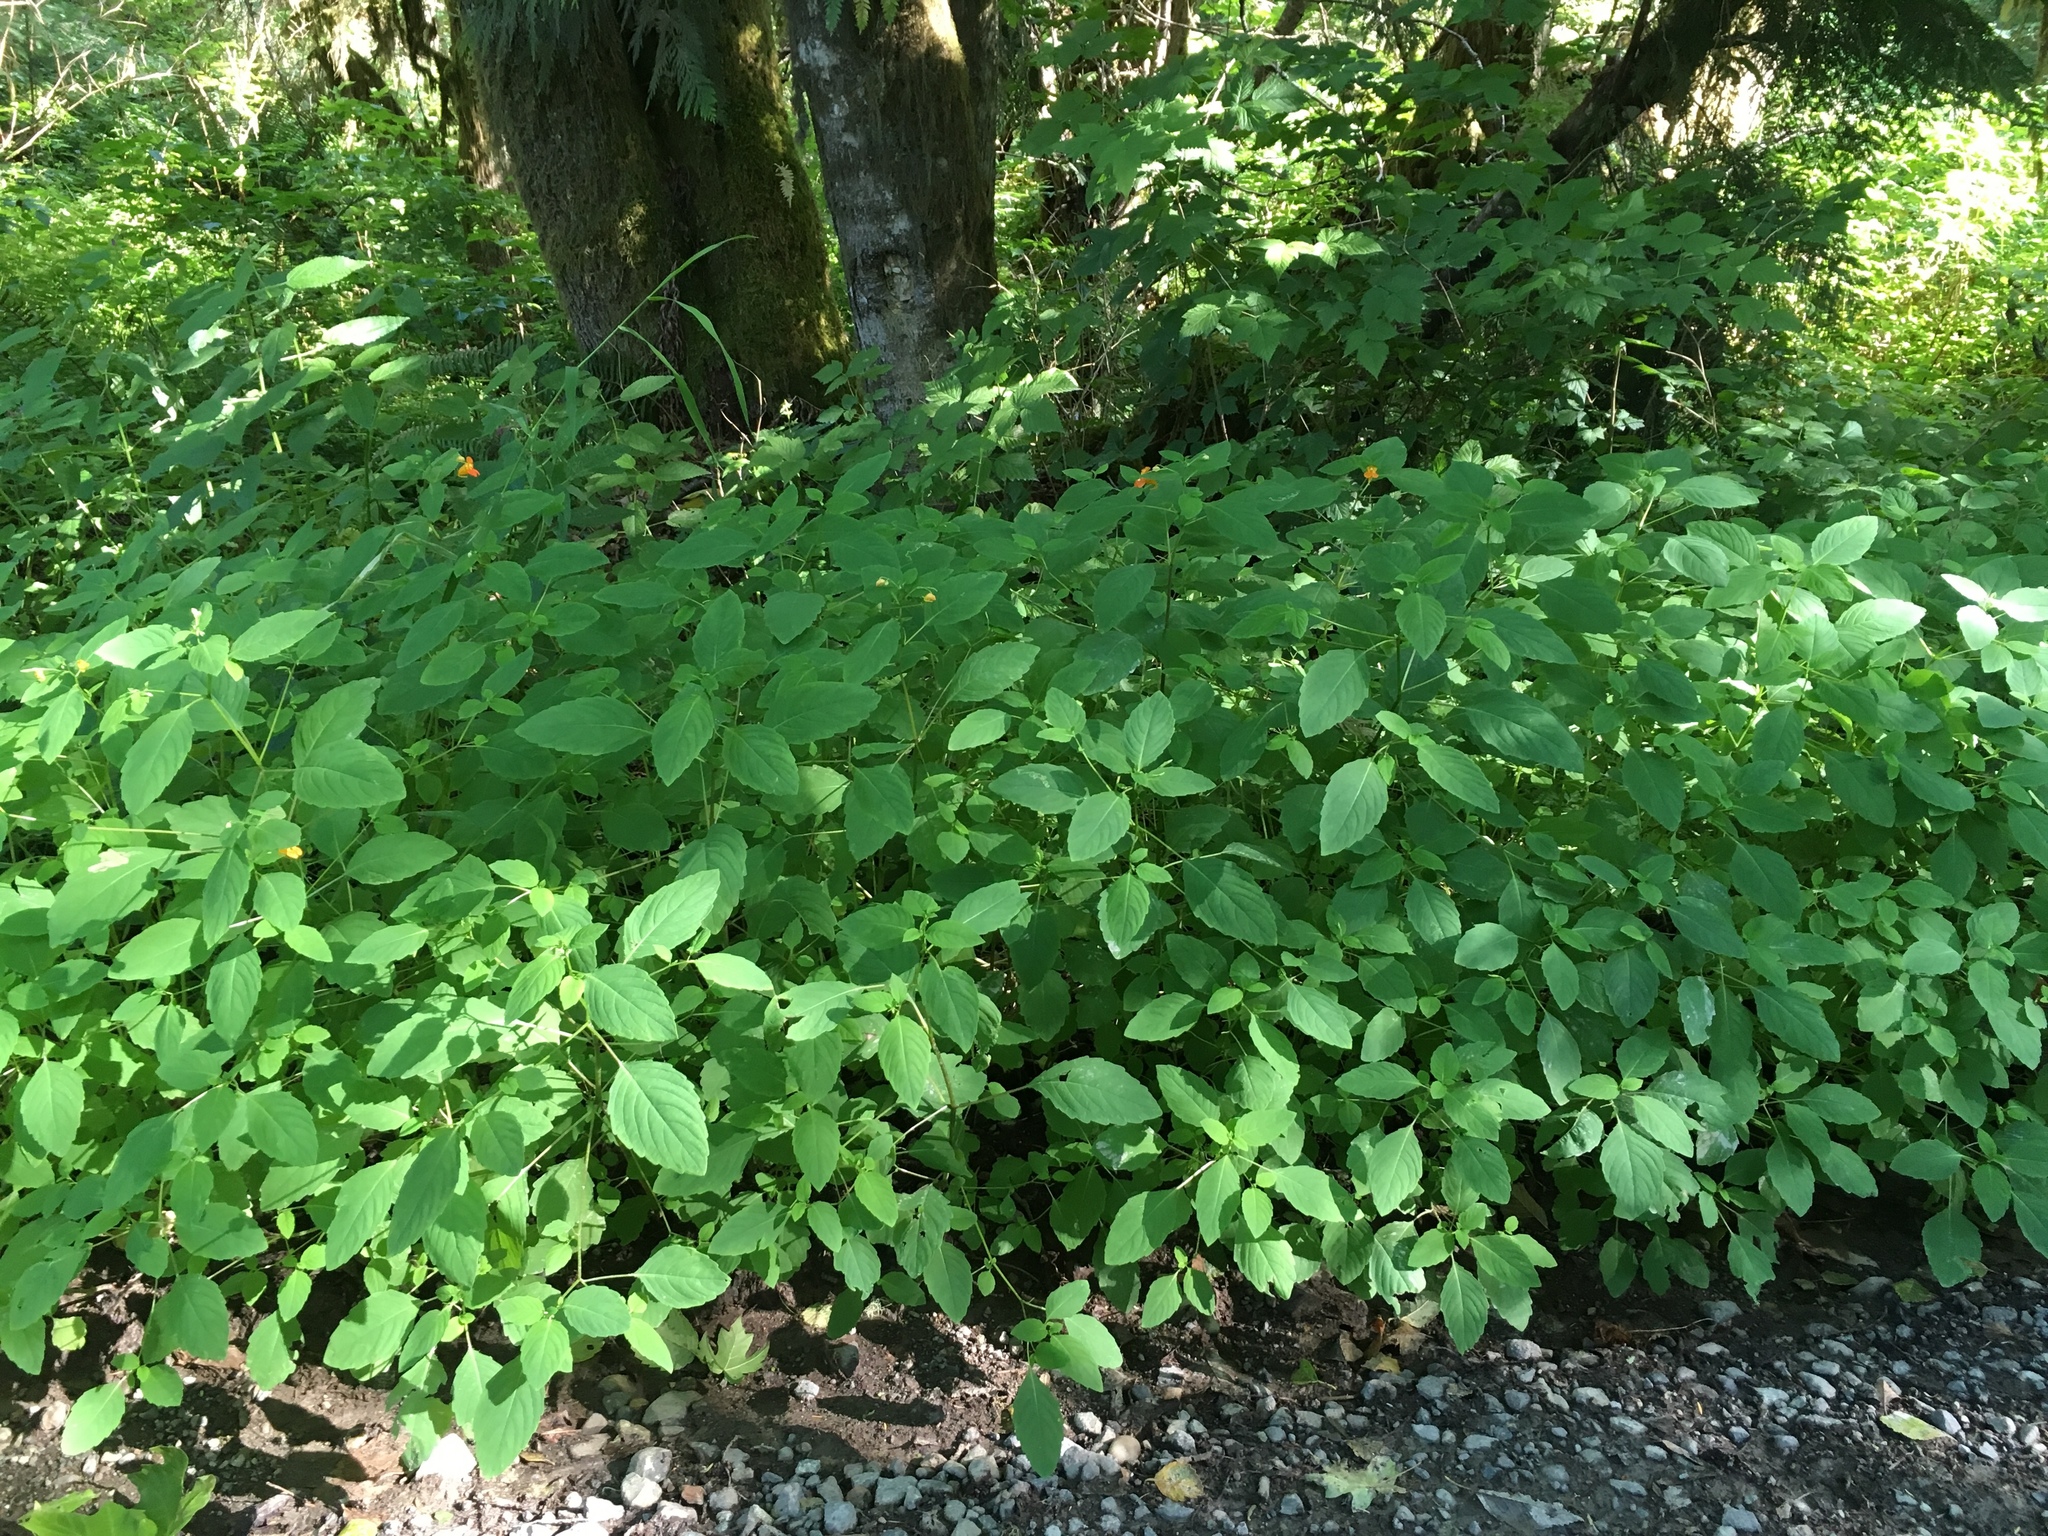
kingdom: Plantae
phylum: Tracheophyta
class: Magnoliopsida
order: Ericales
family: Balsaminaceae
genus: Impatiens
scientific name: Impatiens capensis
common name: Orange balsam
